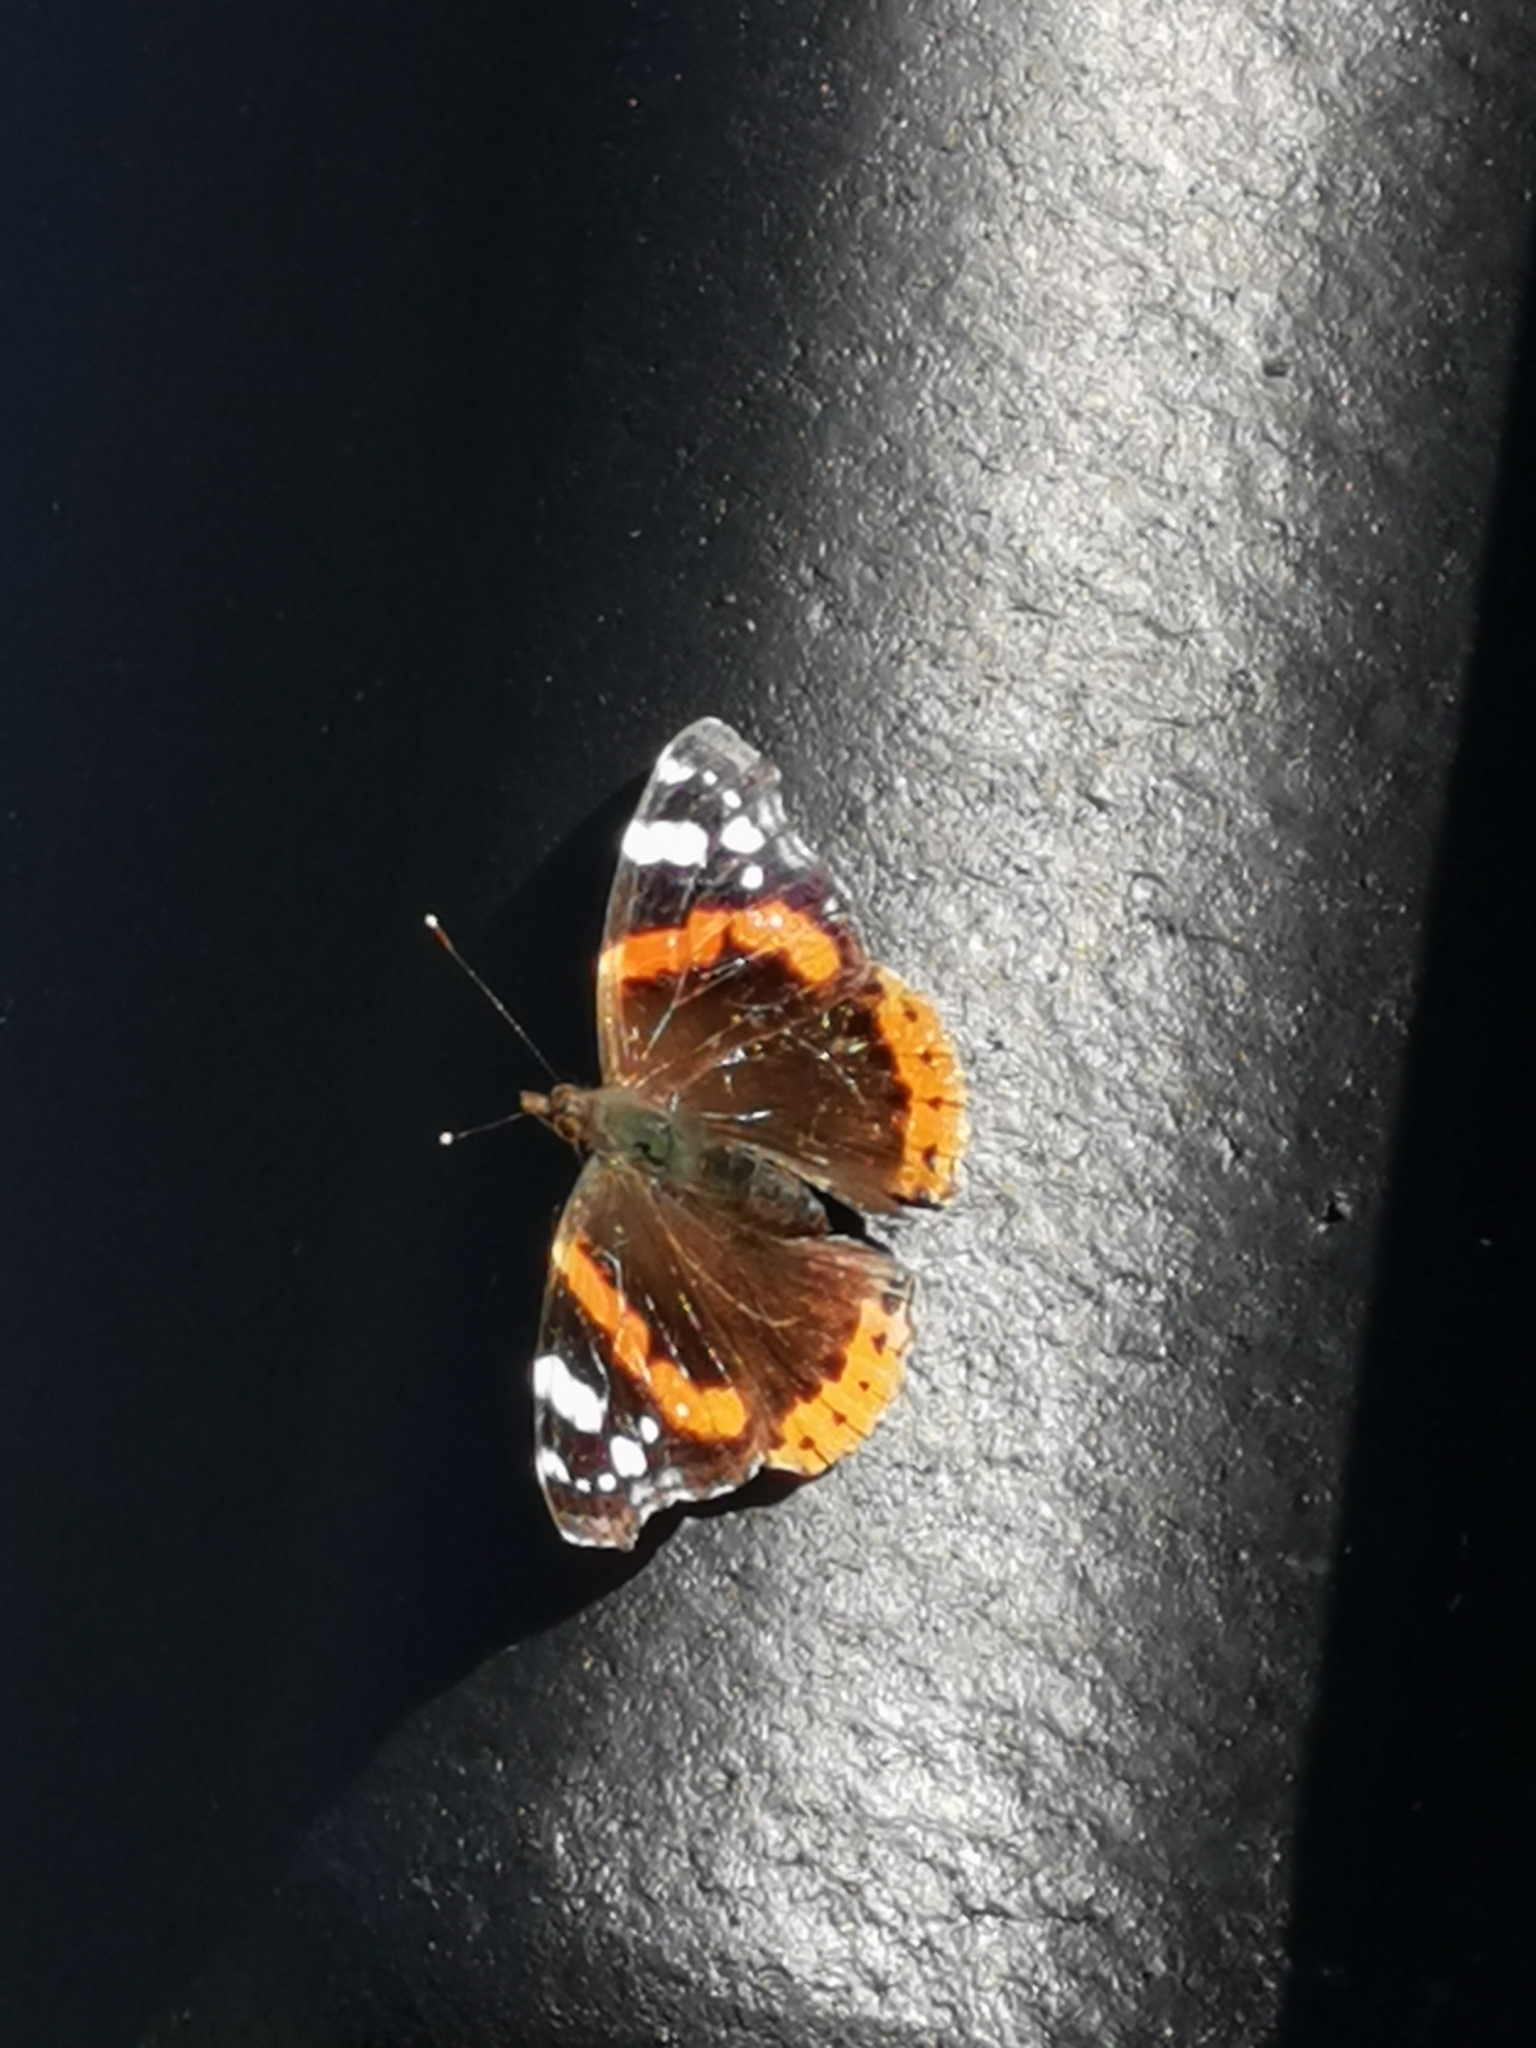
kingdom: Animalia
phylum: Arthropoda
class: Insecta
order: Lepidoptera
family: Nymphalidae
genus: Vanessa
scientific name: Vanessa atalanta
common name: Red admiral
